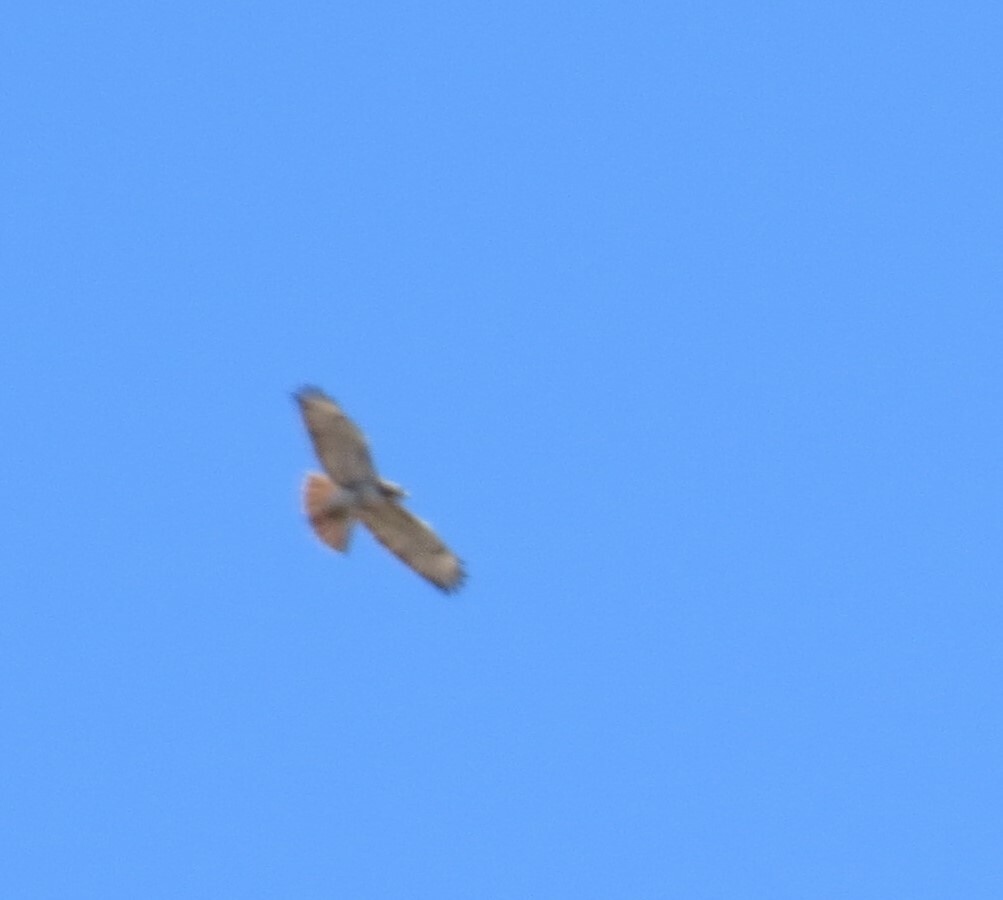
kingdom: Animalia
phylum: Chordata
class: Aves
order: Accipitriformes
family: Accipitridae
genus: Buteo
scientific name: Buteo jamaicensis
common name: Red-tailed hawk
